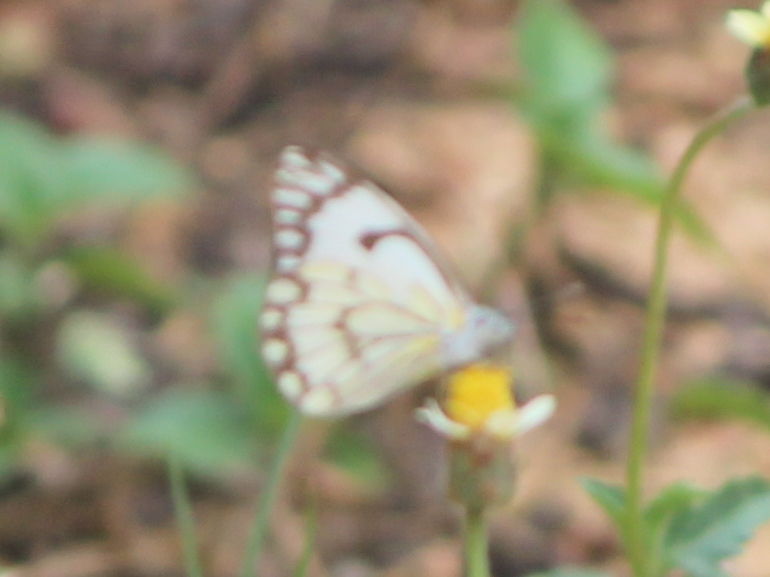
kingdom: Animalia
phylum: Arthropoda
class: Insecta
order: Lepidoptera
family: Pieridae
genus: Belenois
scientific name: Belenois aurota
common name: Brown-veined white
